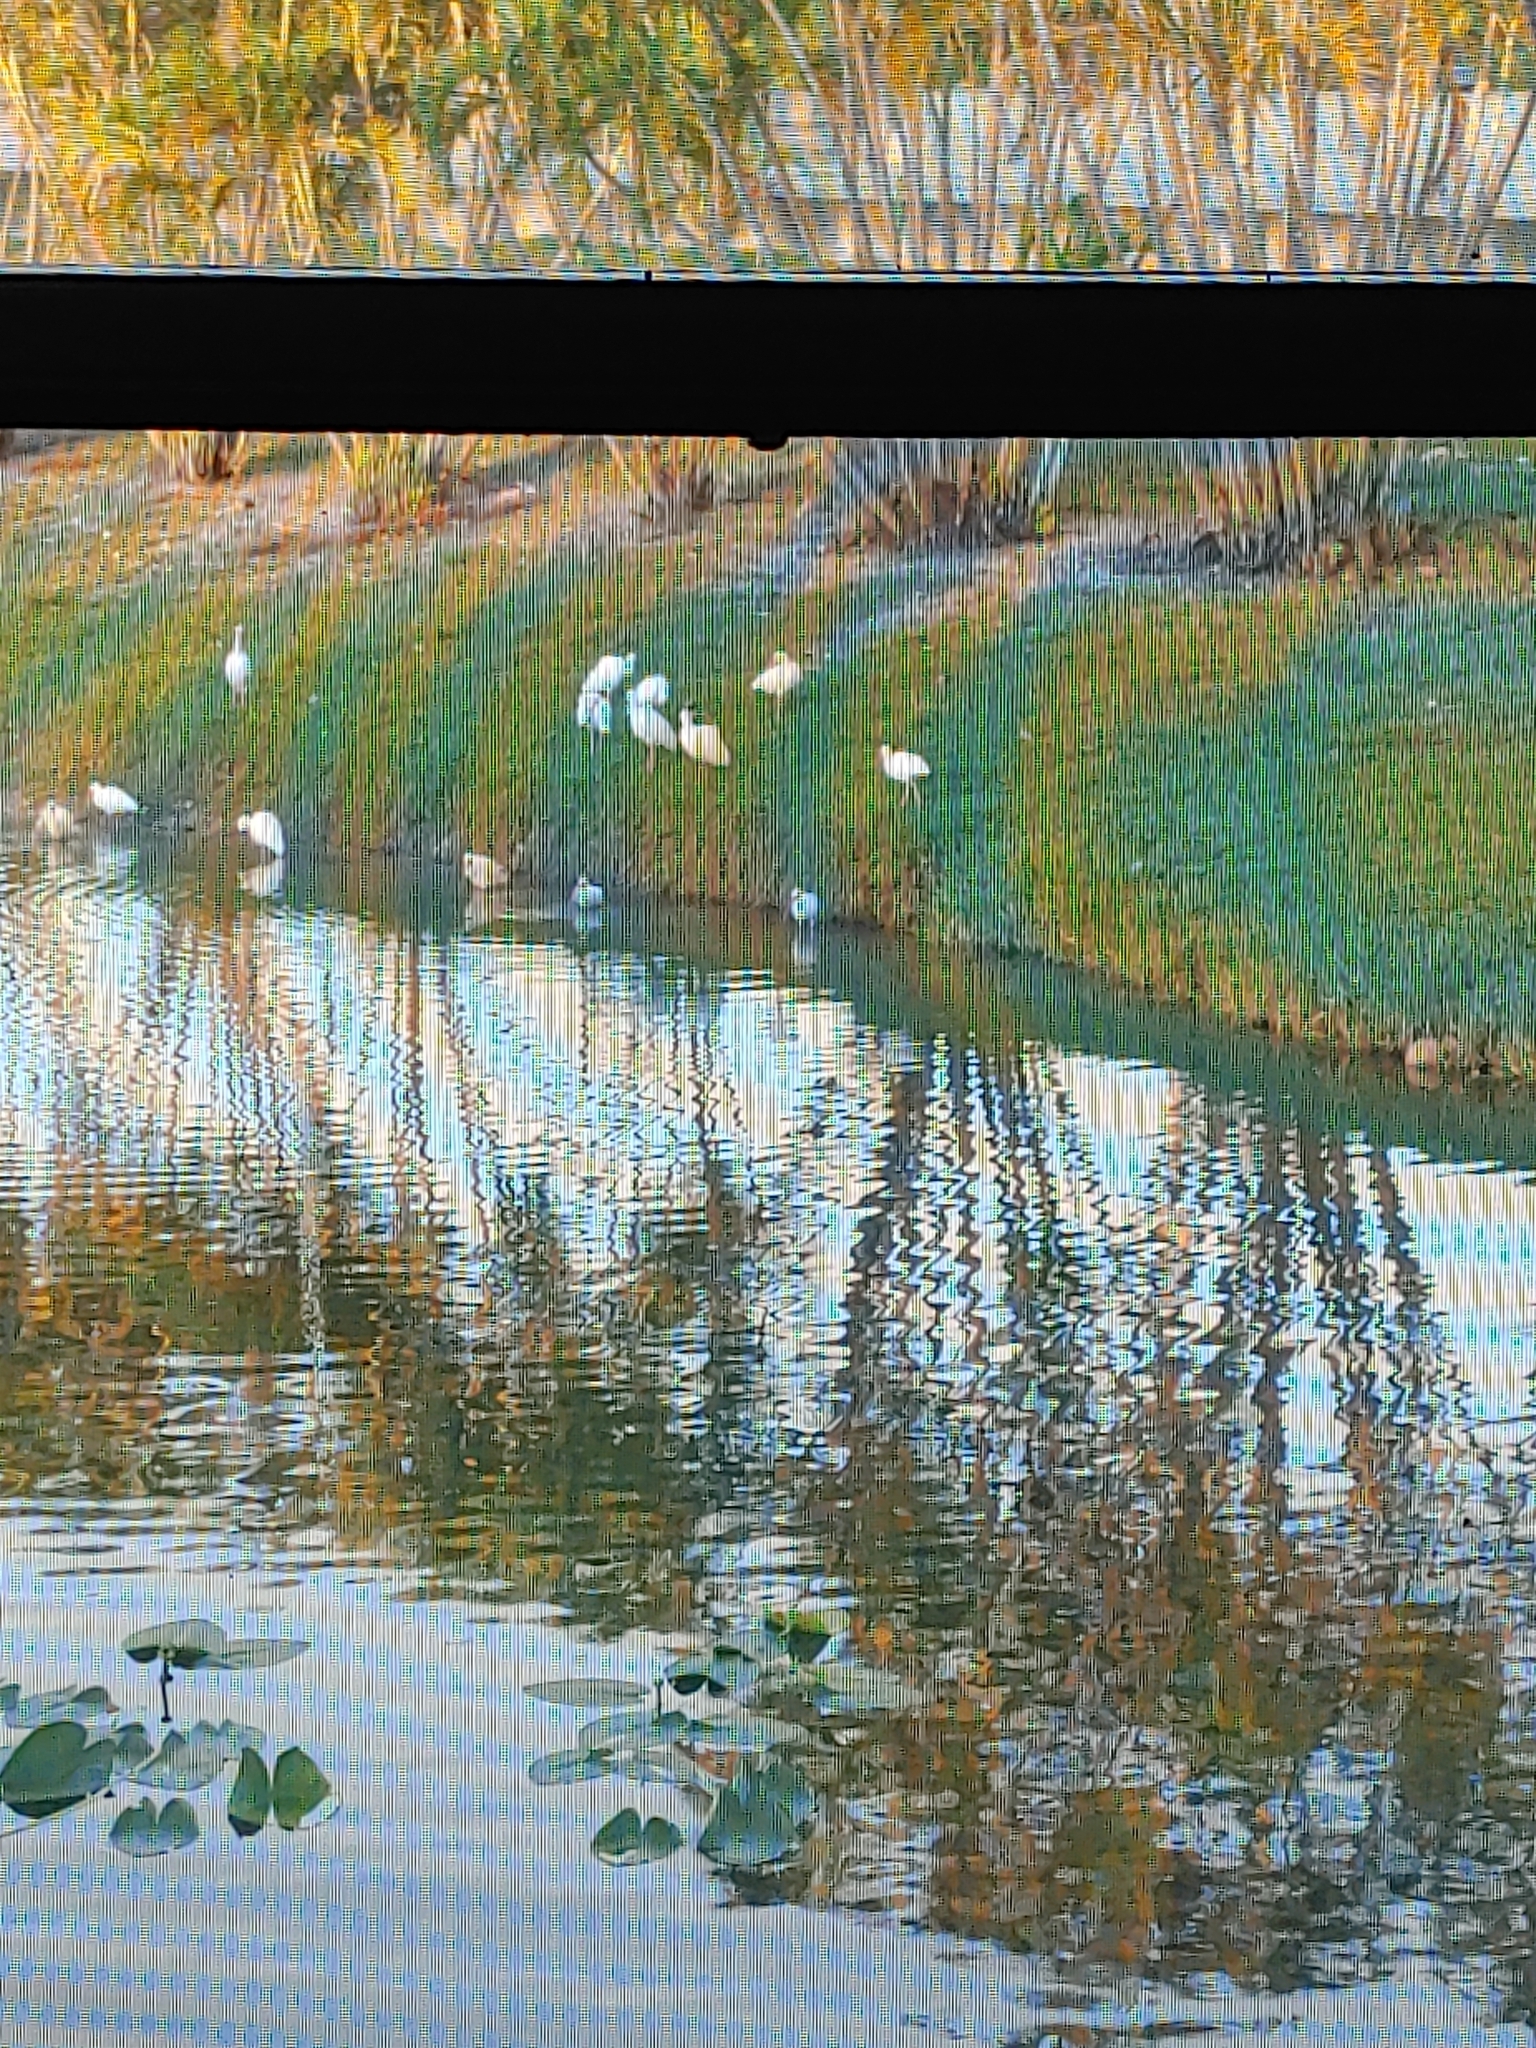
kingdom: Animalia
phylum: Chordata
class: Aves
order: Pelecaniformes
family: Threskiornithidae
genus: Eudocimus
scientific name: Eudocimus albus
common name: White ibis
